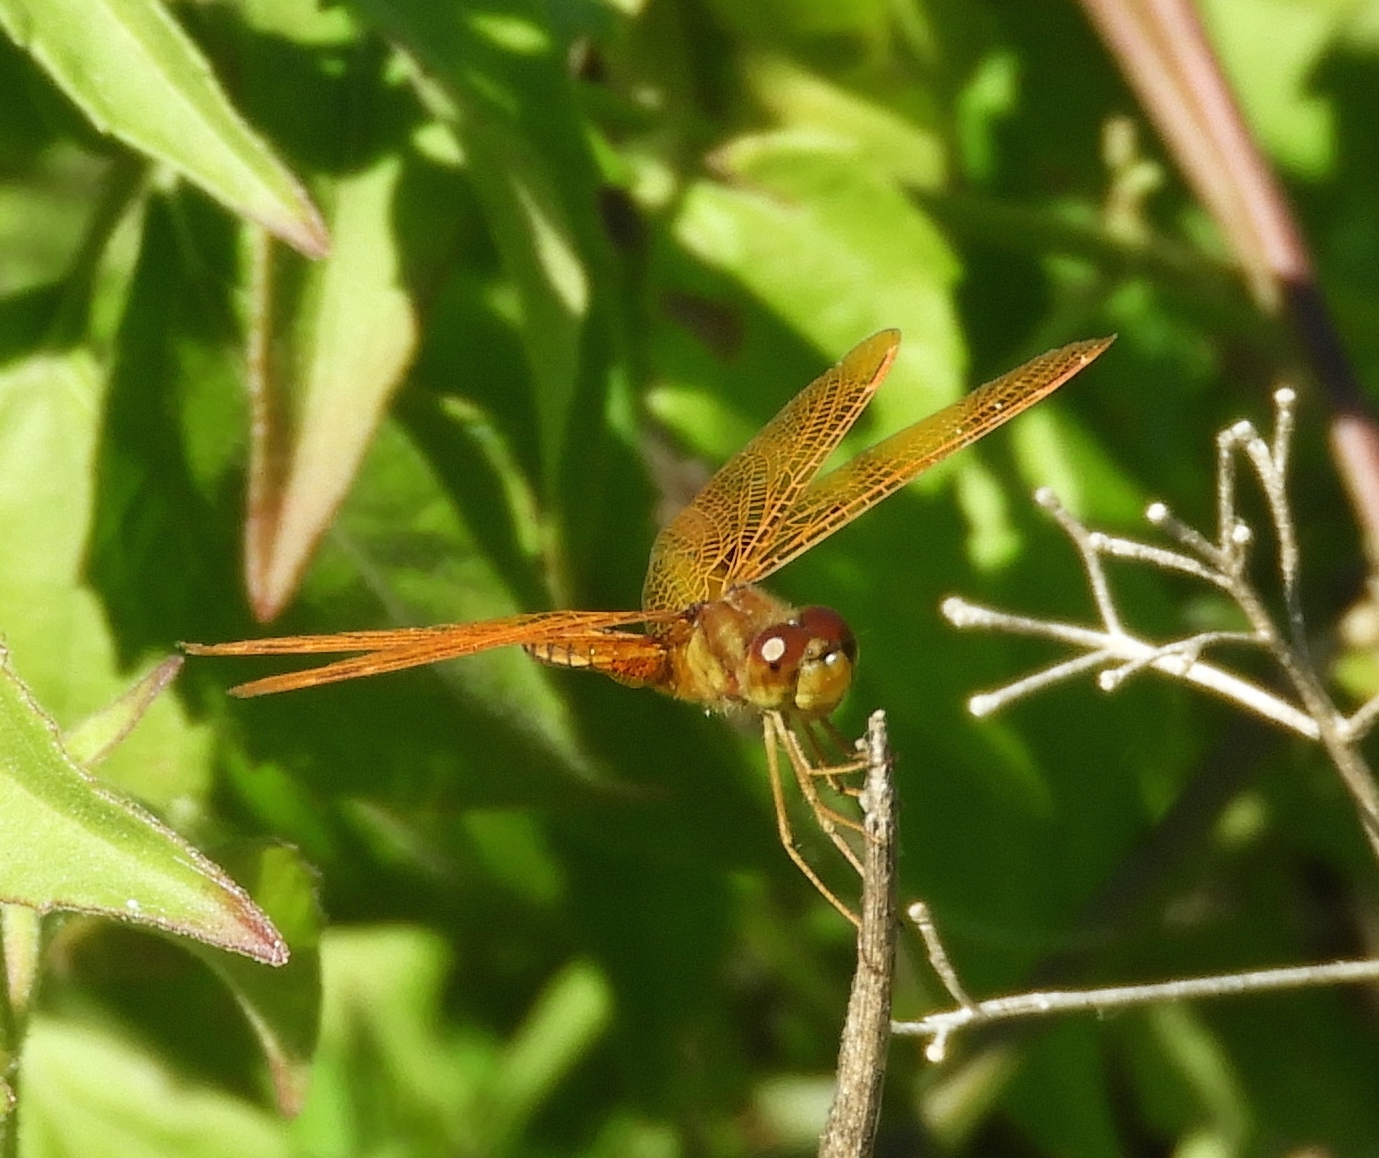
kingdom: Animalia
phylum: Arthropoda
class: Insecta
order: Odonata
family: Libellulidae
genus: Perithemis
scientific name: Perithemis intensa
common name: Mexican amberwing
